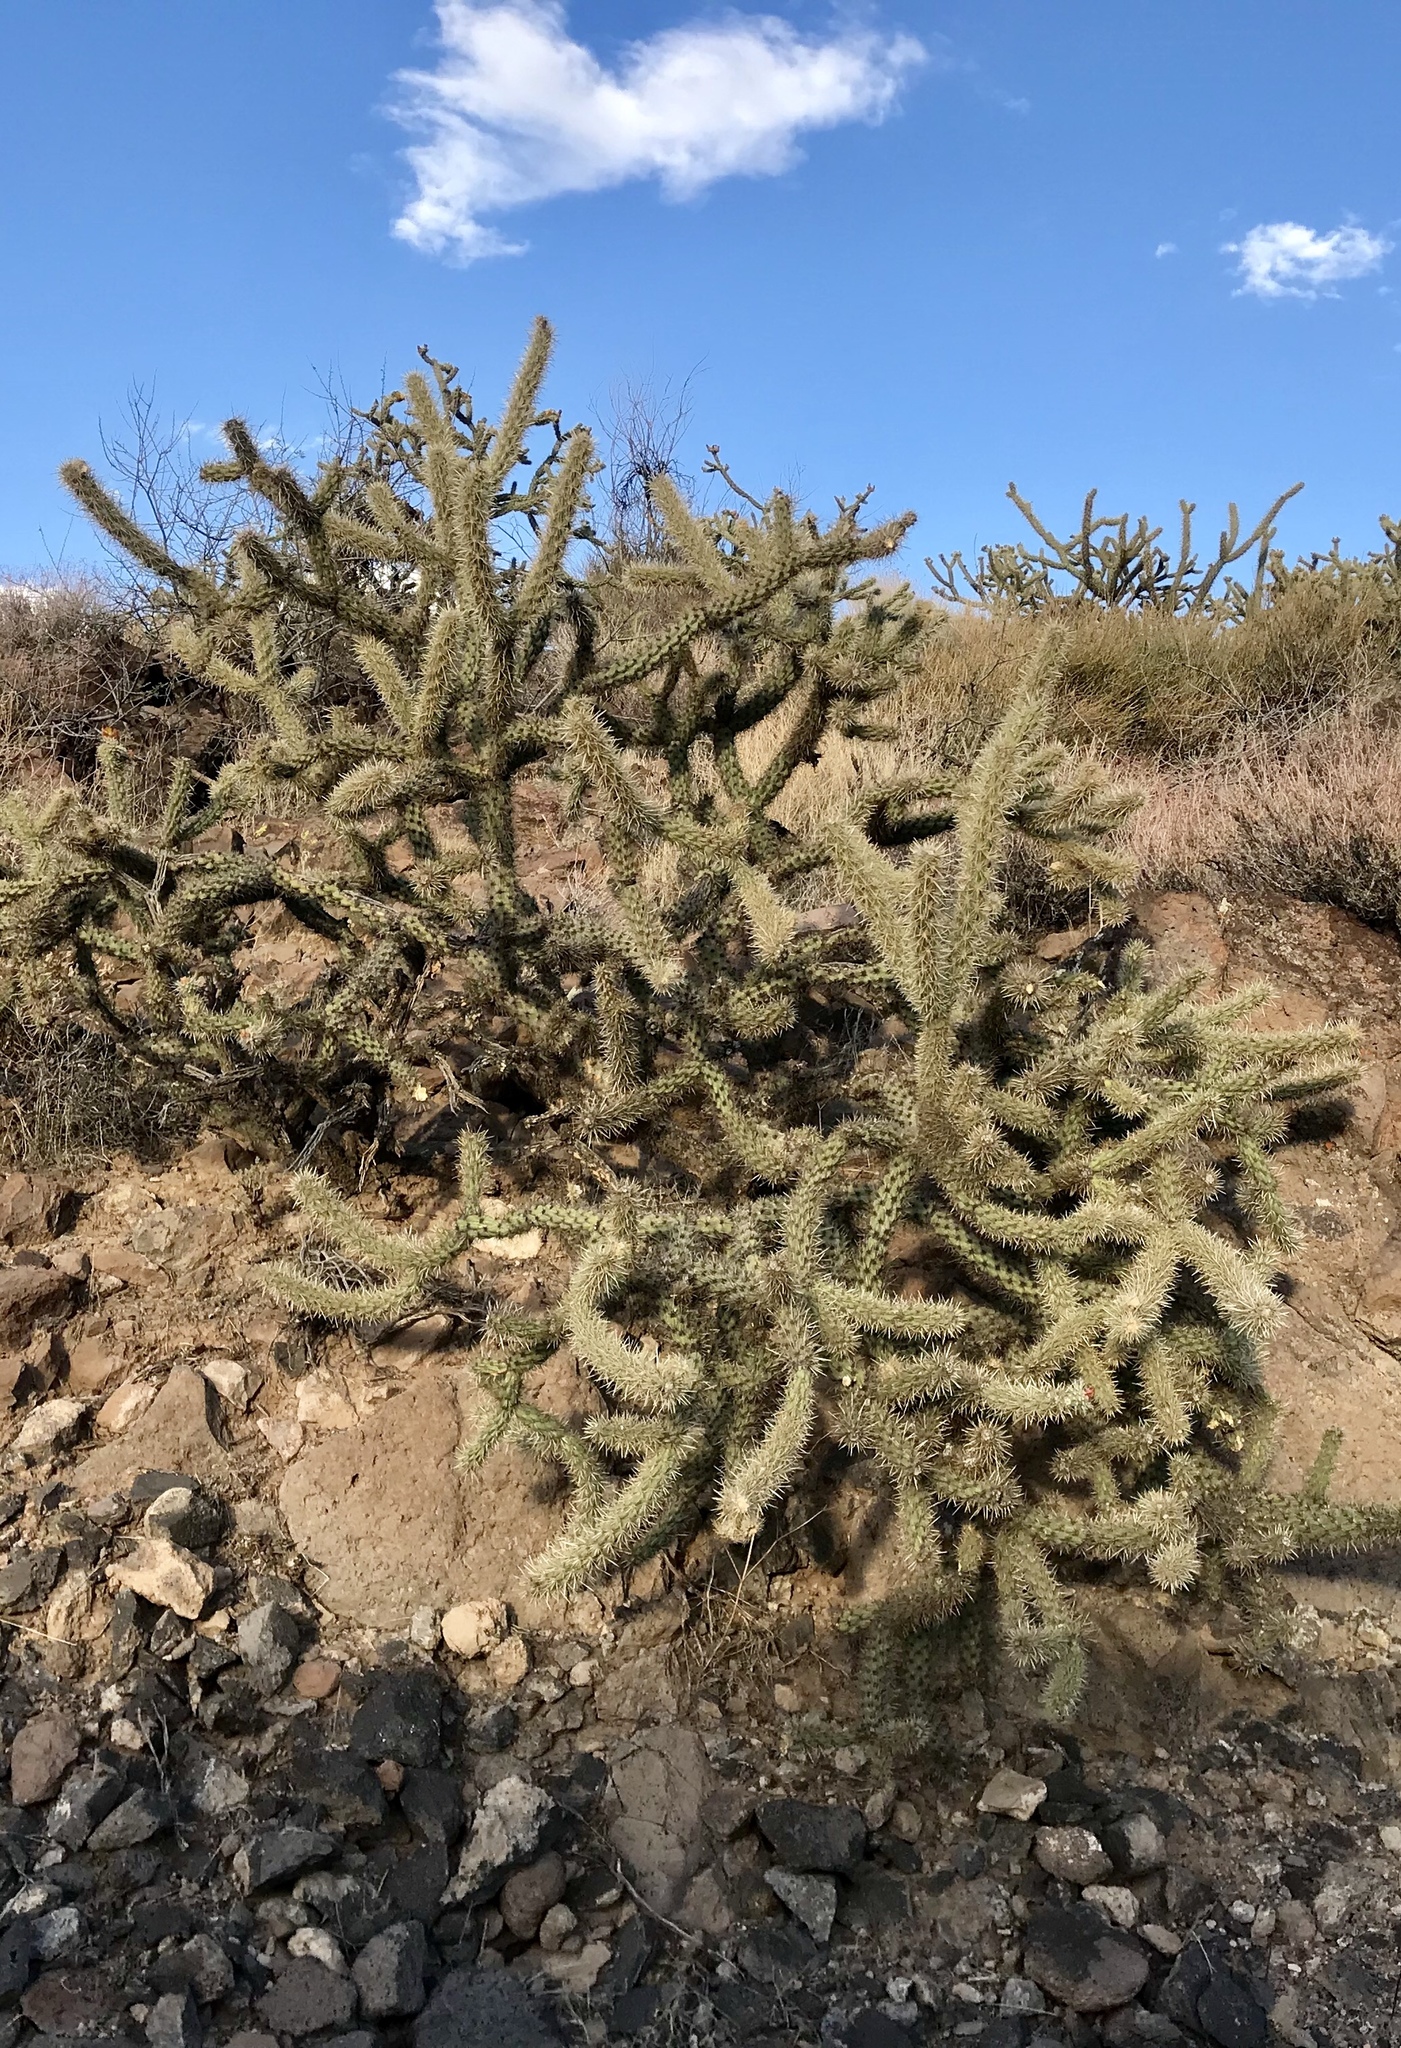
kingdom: Plantae
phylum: Tracheophyta
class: Magnoliopsida
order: Caryophyllales
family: Cactaceae
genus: Cylindropuntia
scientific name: Cylindropuntia acanthocarpa
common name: Buckhorn cholla
